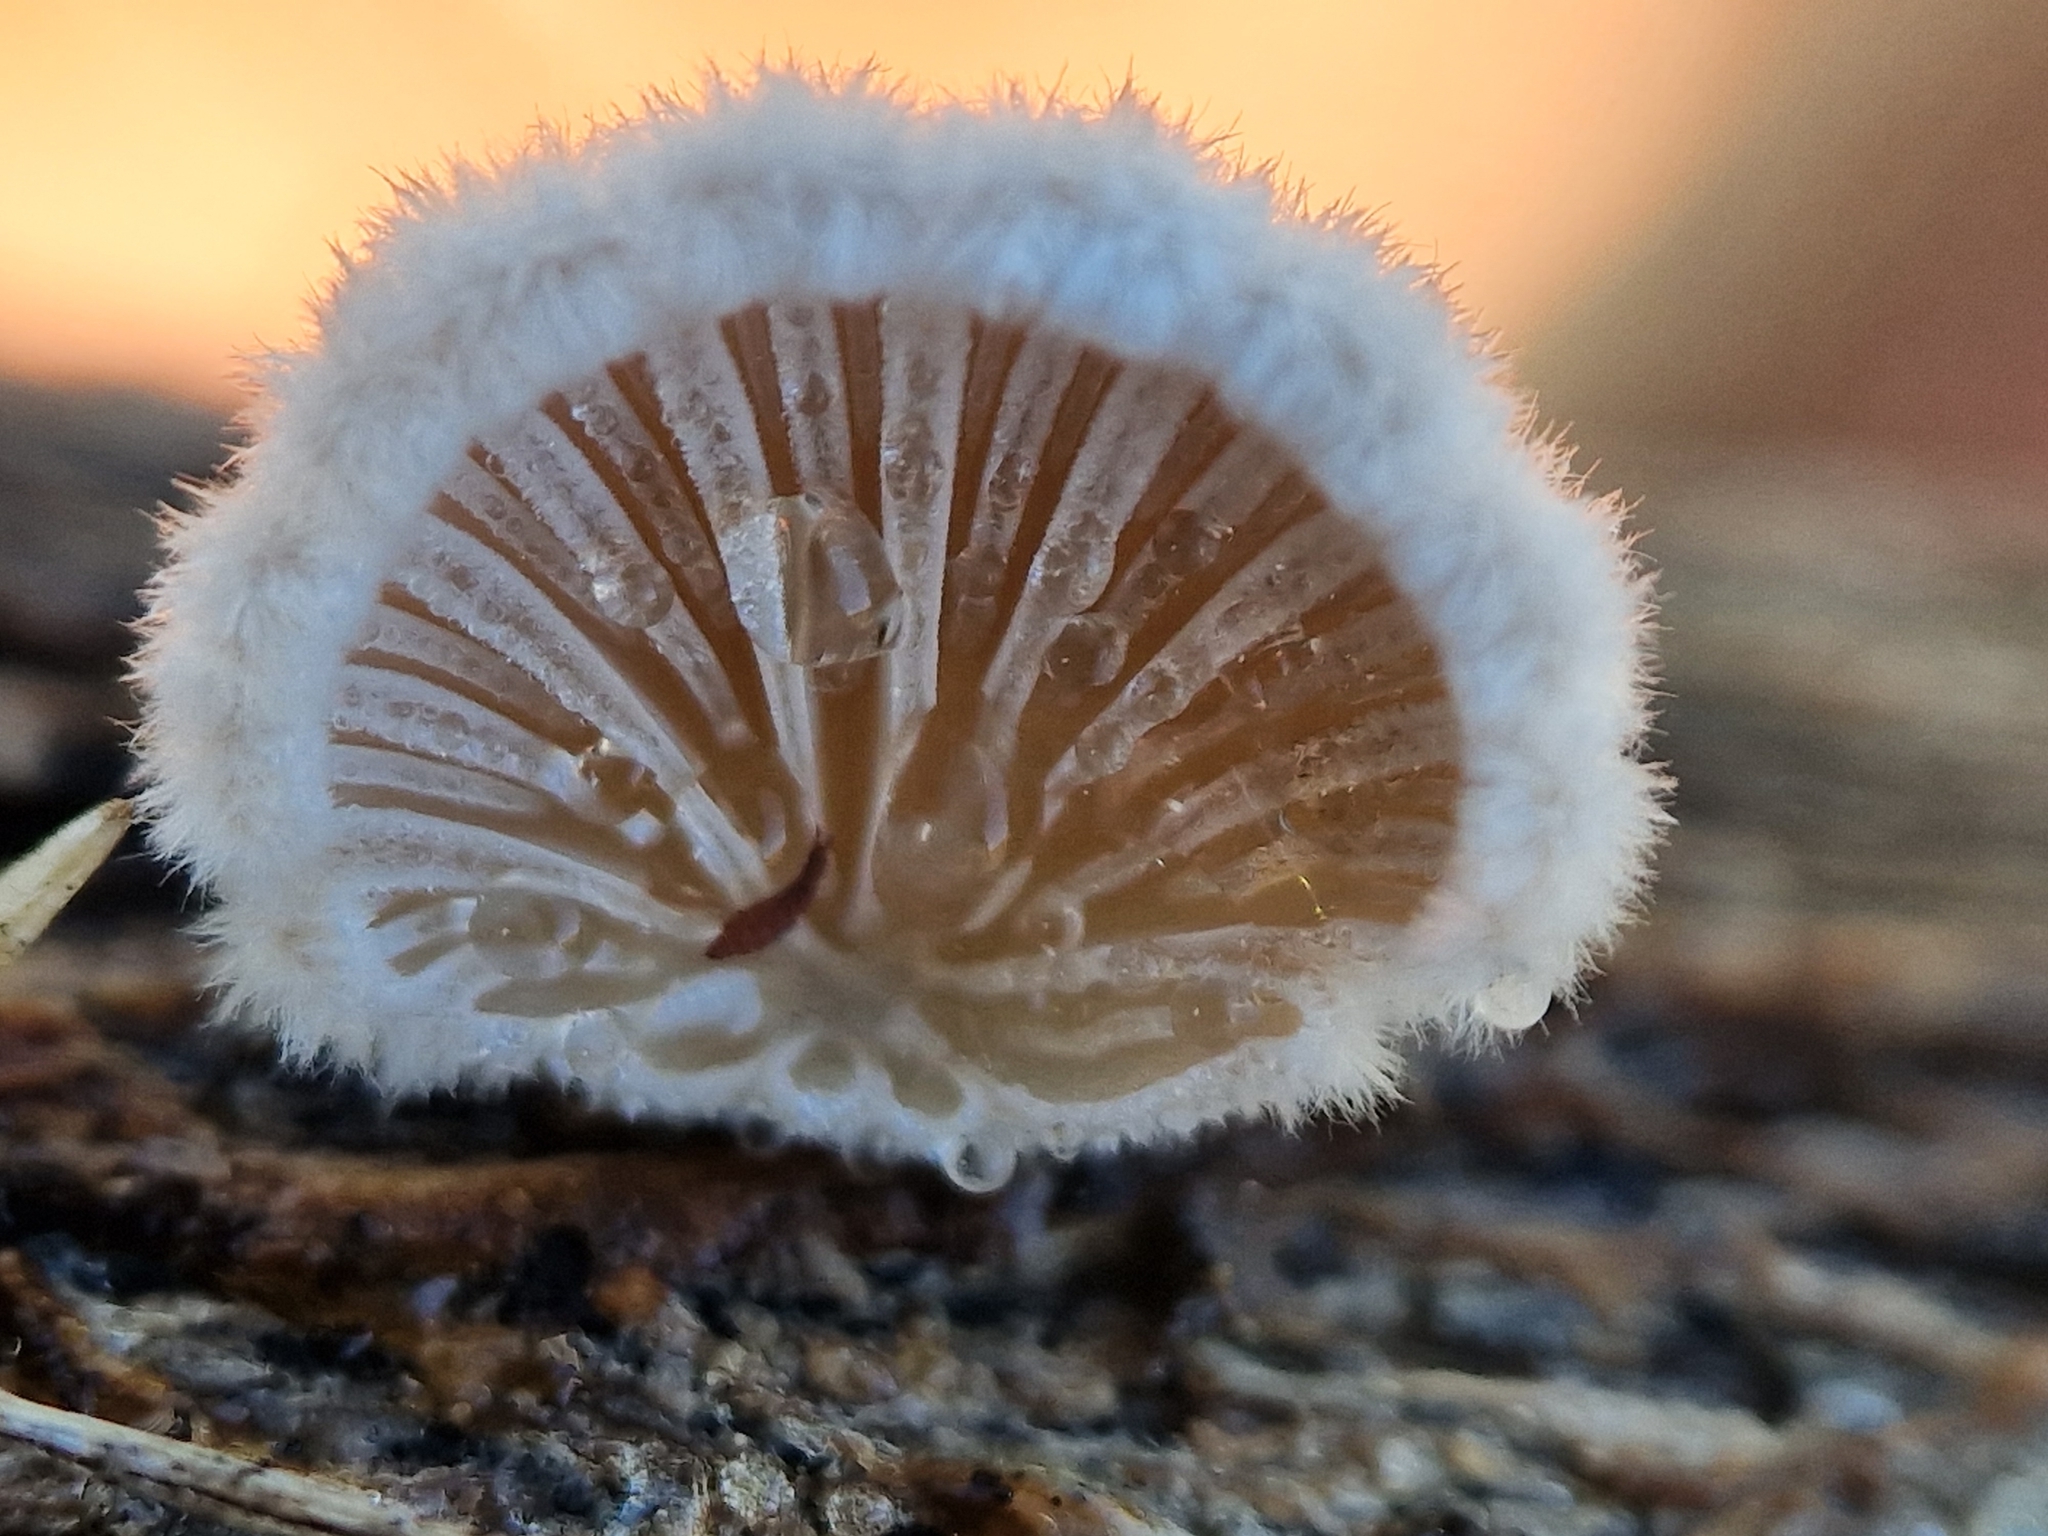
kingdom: Fungi
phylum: Basidiomycota
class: Agaricomycetes
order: Agaricales
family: Schizophyllaceae
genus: Schizophyllum
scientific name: Schizophyllum commune
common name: Common porecrust
